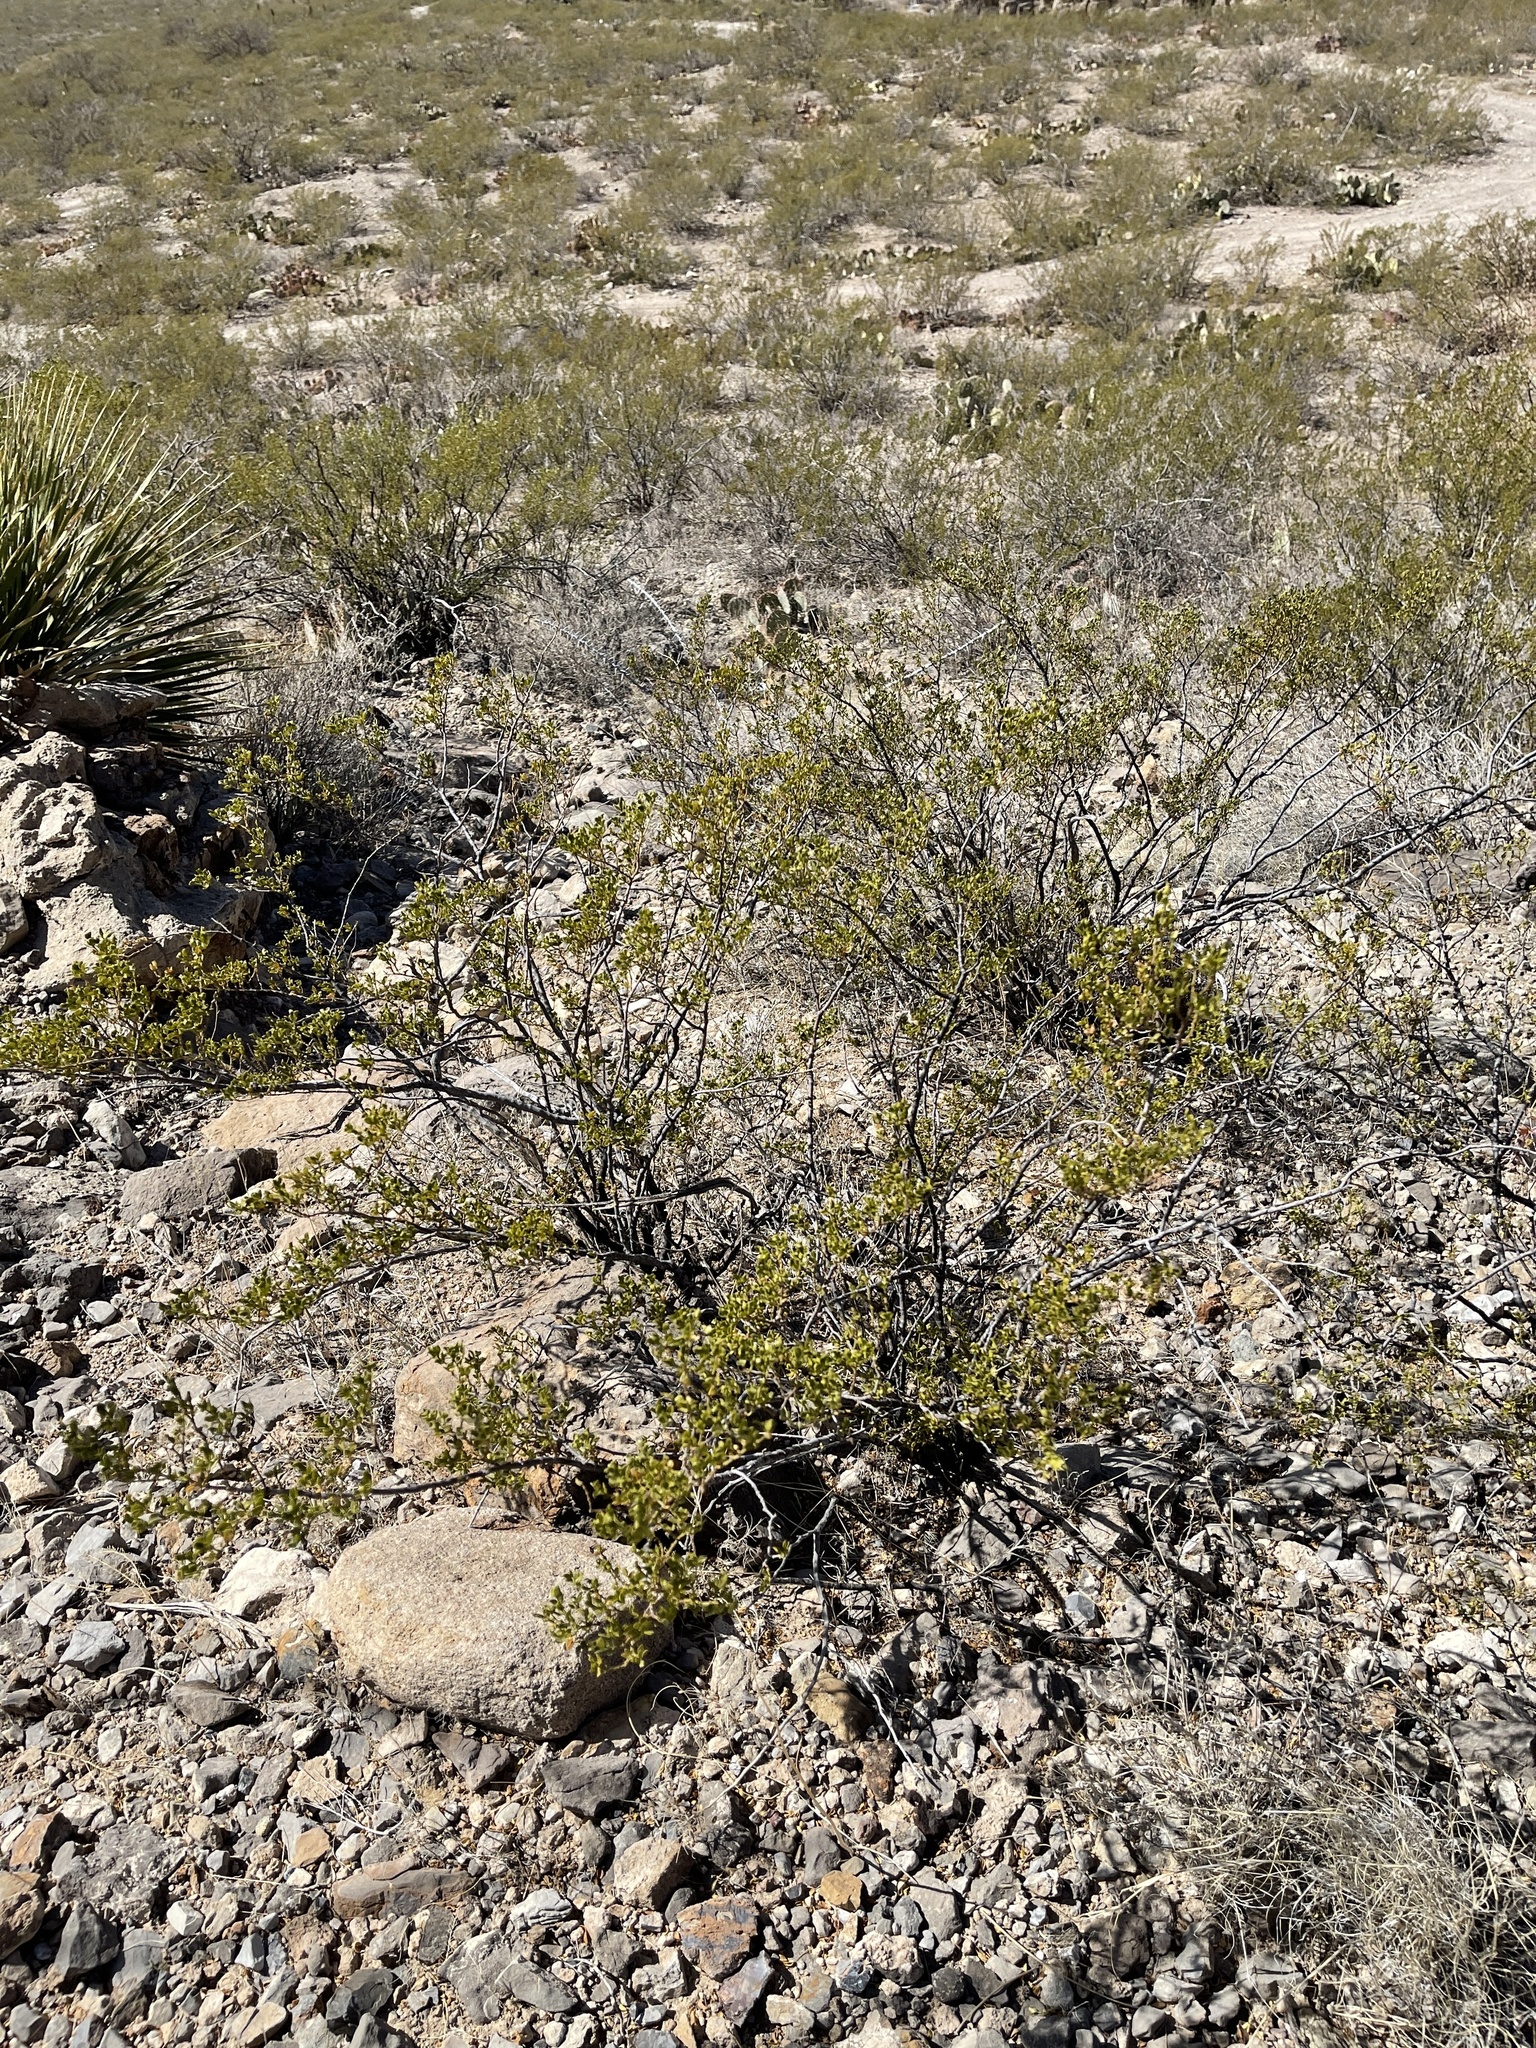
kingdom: Plantae
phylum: Tracheophyta
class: Magnoliopsida
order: Zygophyllales
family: Zygophyllaceae
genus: Larrea
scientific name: Larrea tridentata
